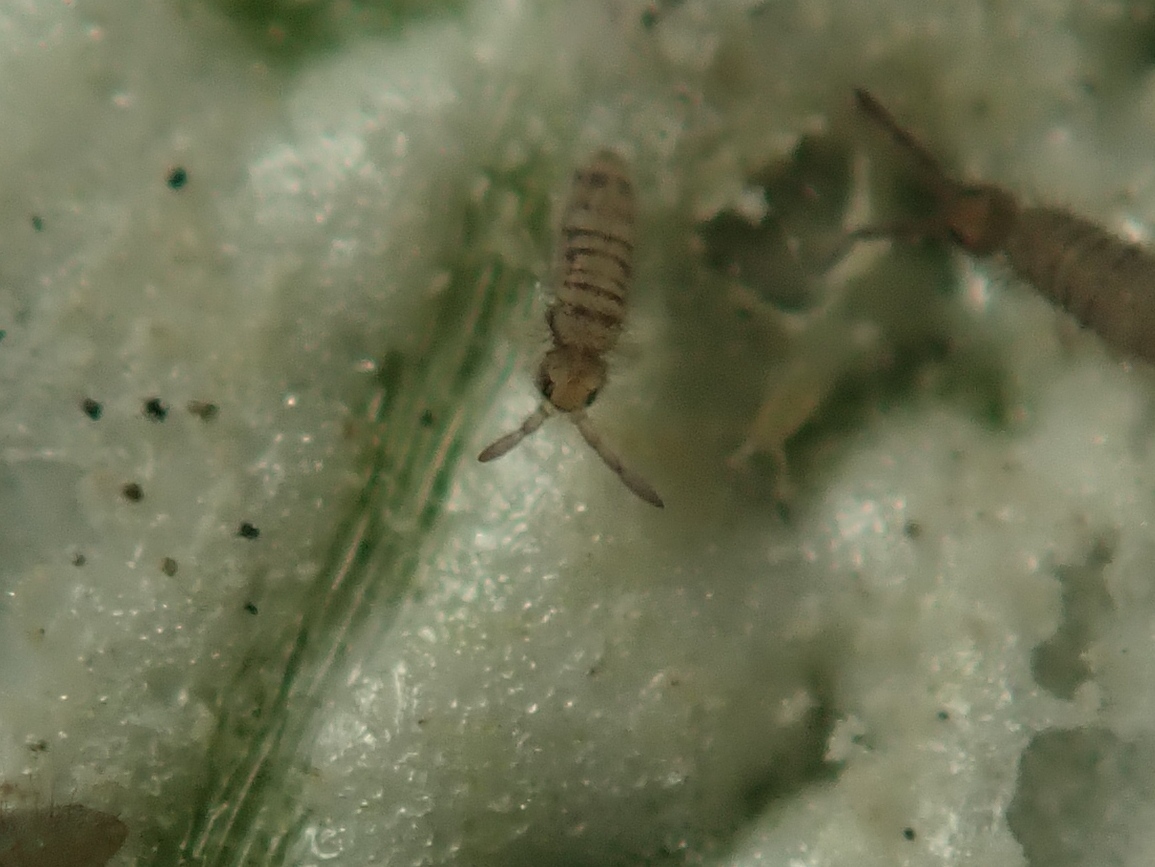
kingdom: Animalia
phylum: Arthropoda
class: Collembola
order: Entomobryomorpha
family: Entomobryidae
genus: Entomobrya
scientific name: Entomobrya multifasciata
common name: Springtail
